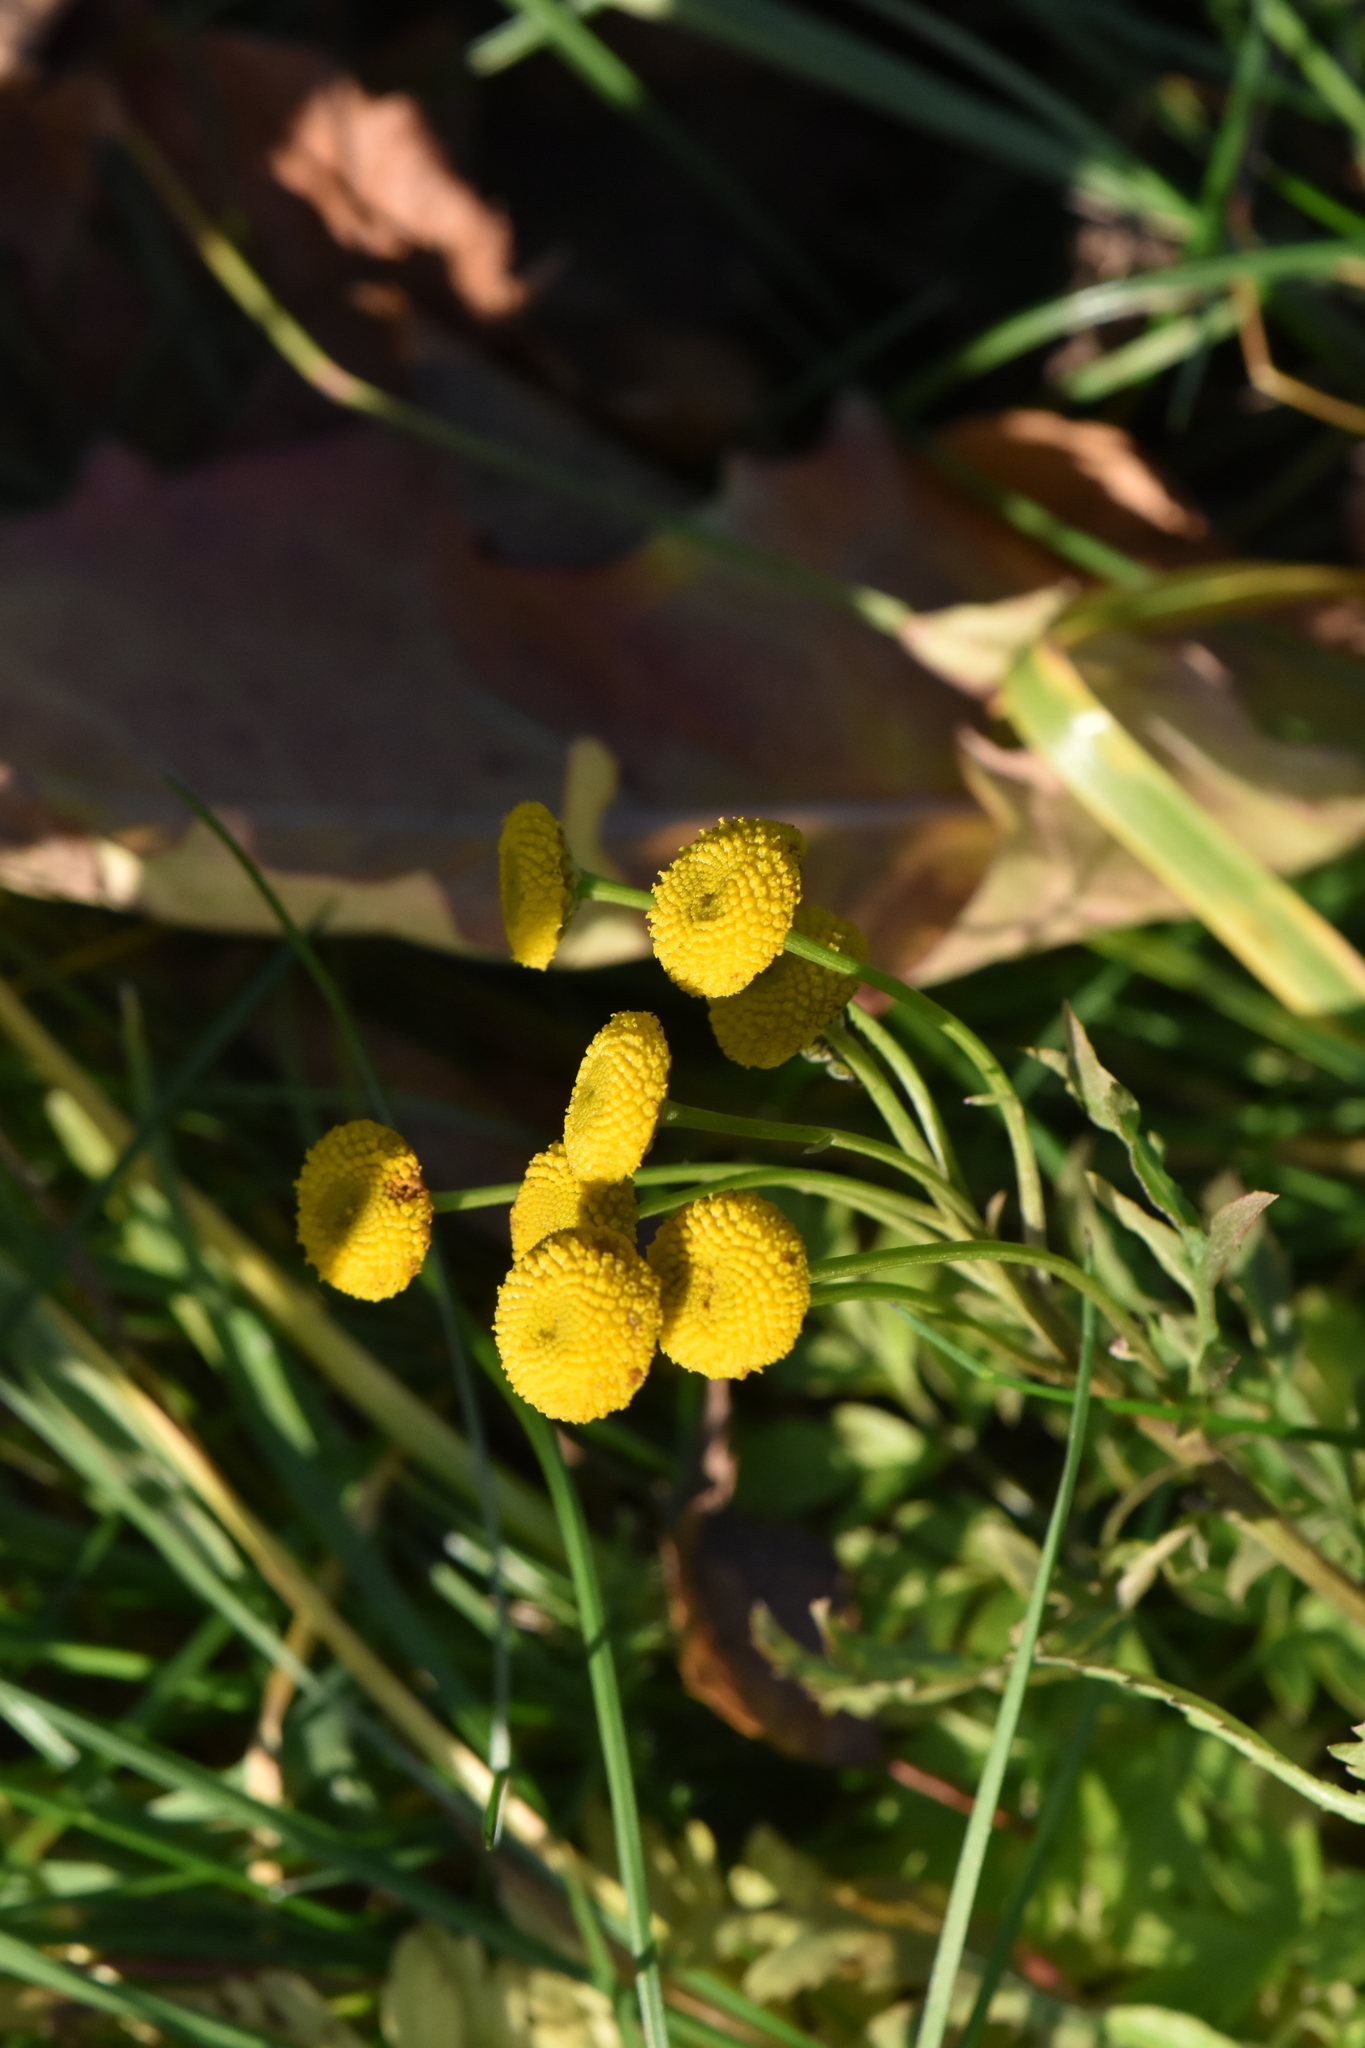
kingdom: Plantae
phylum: Tracheophyta
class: Magnoliopsida
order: Asterales
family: Asteraceae
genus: Tanacetum
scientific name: Tanacetum vulgare
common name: Common tansy
